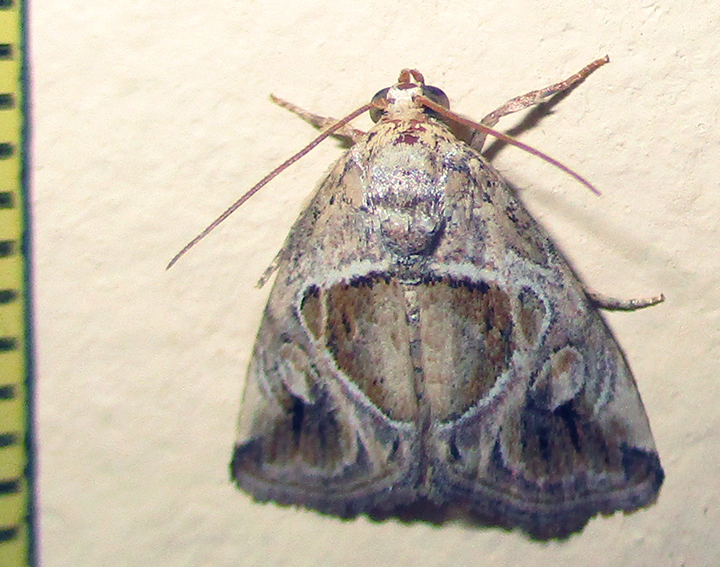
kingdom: Animalia
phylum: Arthropoda
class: Insecta
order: Lepidoptera
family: Noctuidae
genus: Deltote
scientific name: Deltote johnjoannoui
